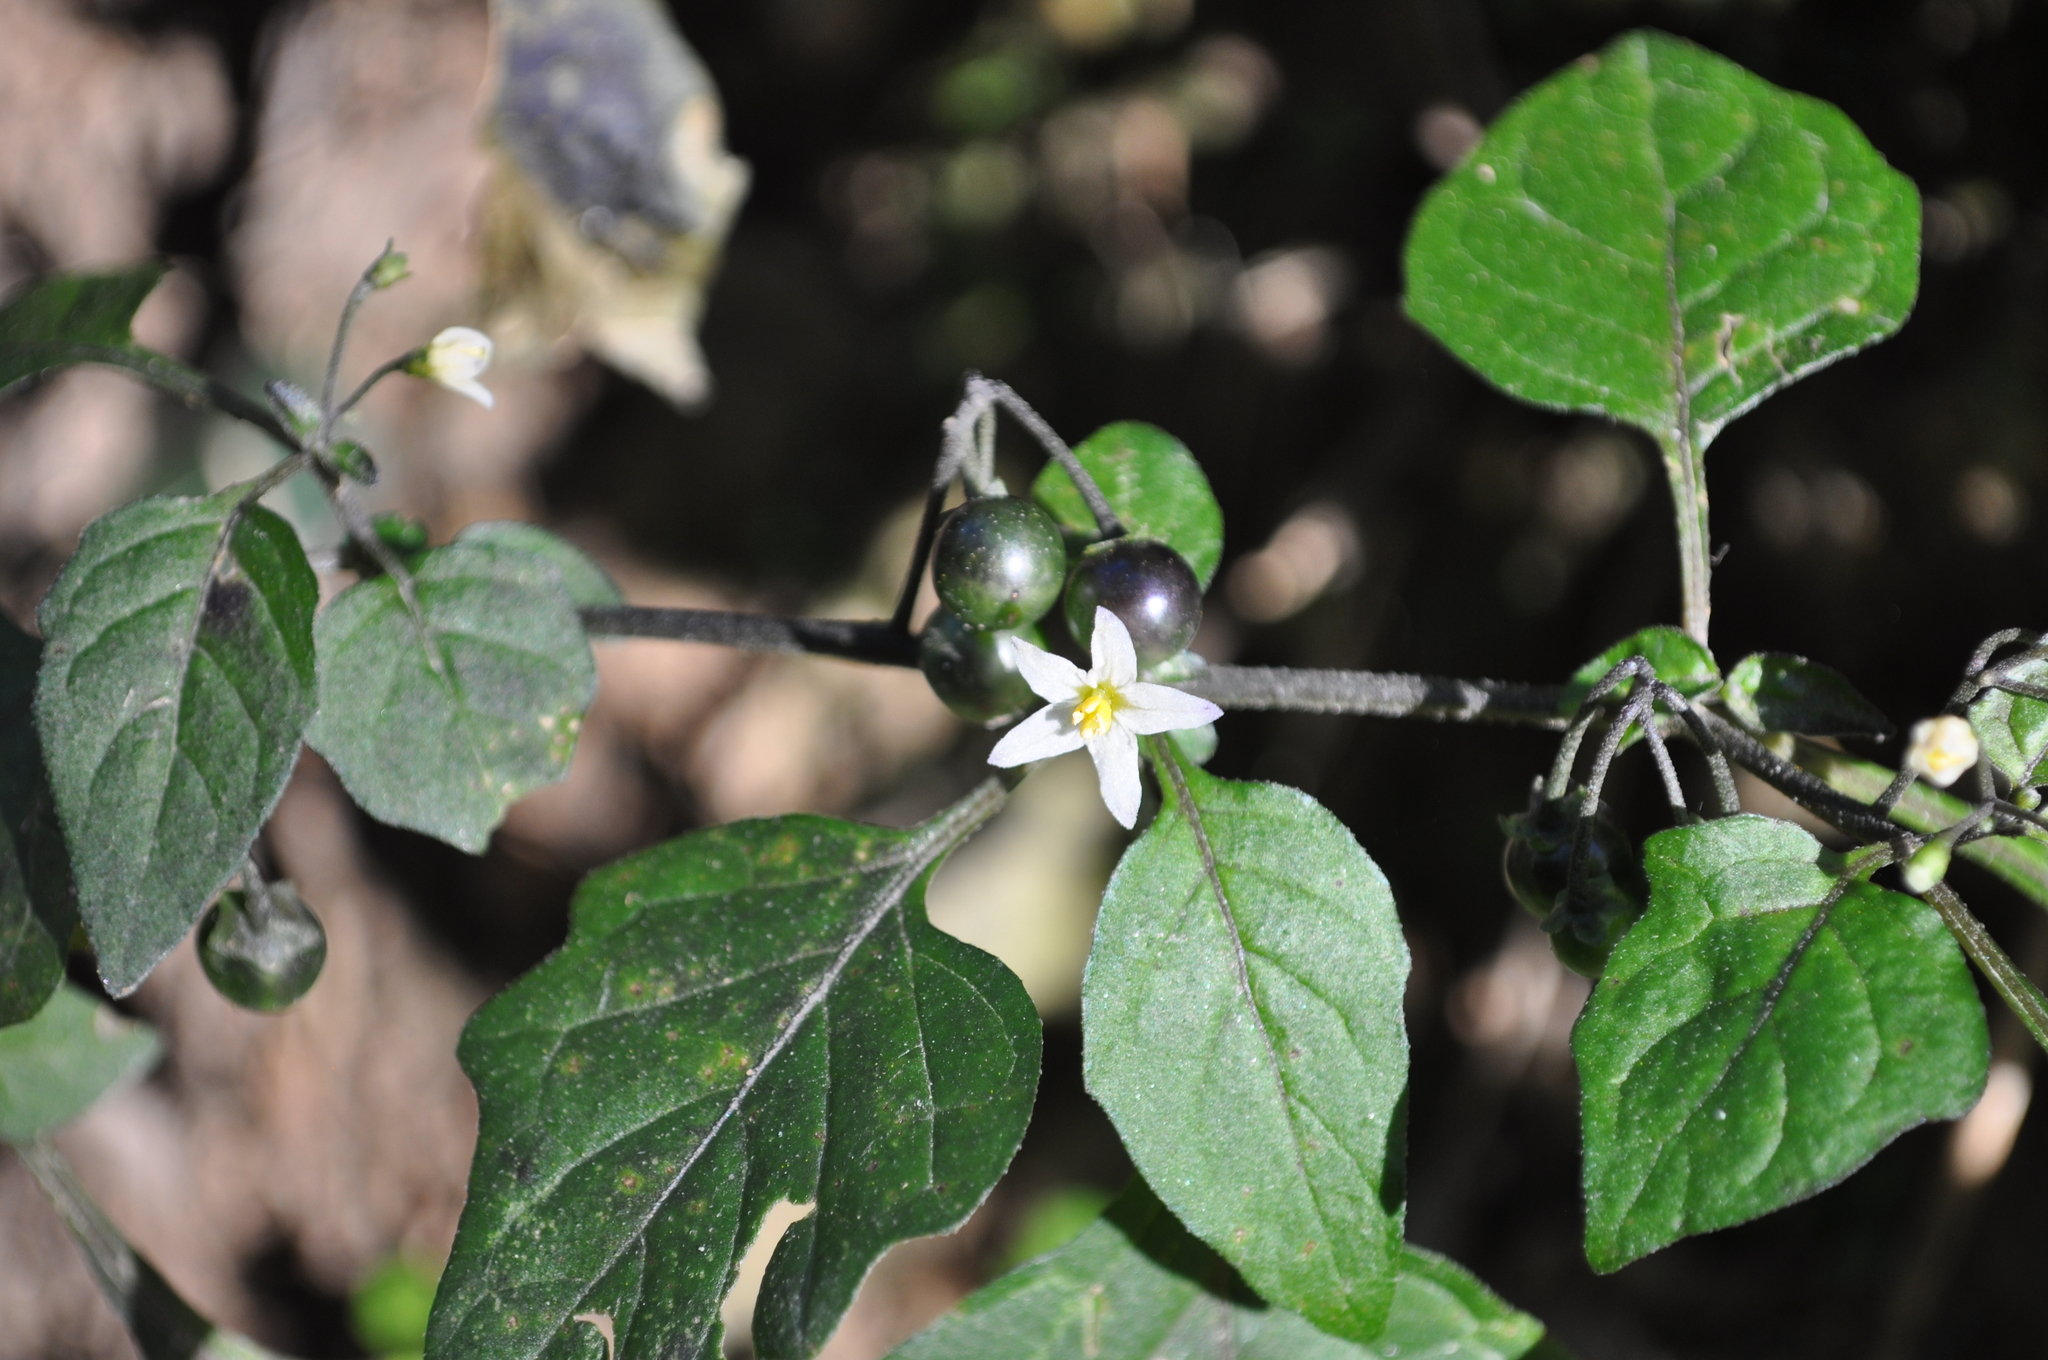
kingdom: Plantae
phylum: Tracheophyta
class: Magnoliopsida
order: Solanales
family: Solanaceae
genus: Solanum
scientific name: Solanum nigrum
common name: Black nightshade
